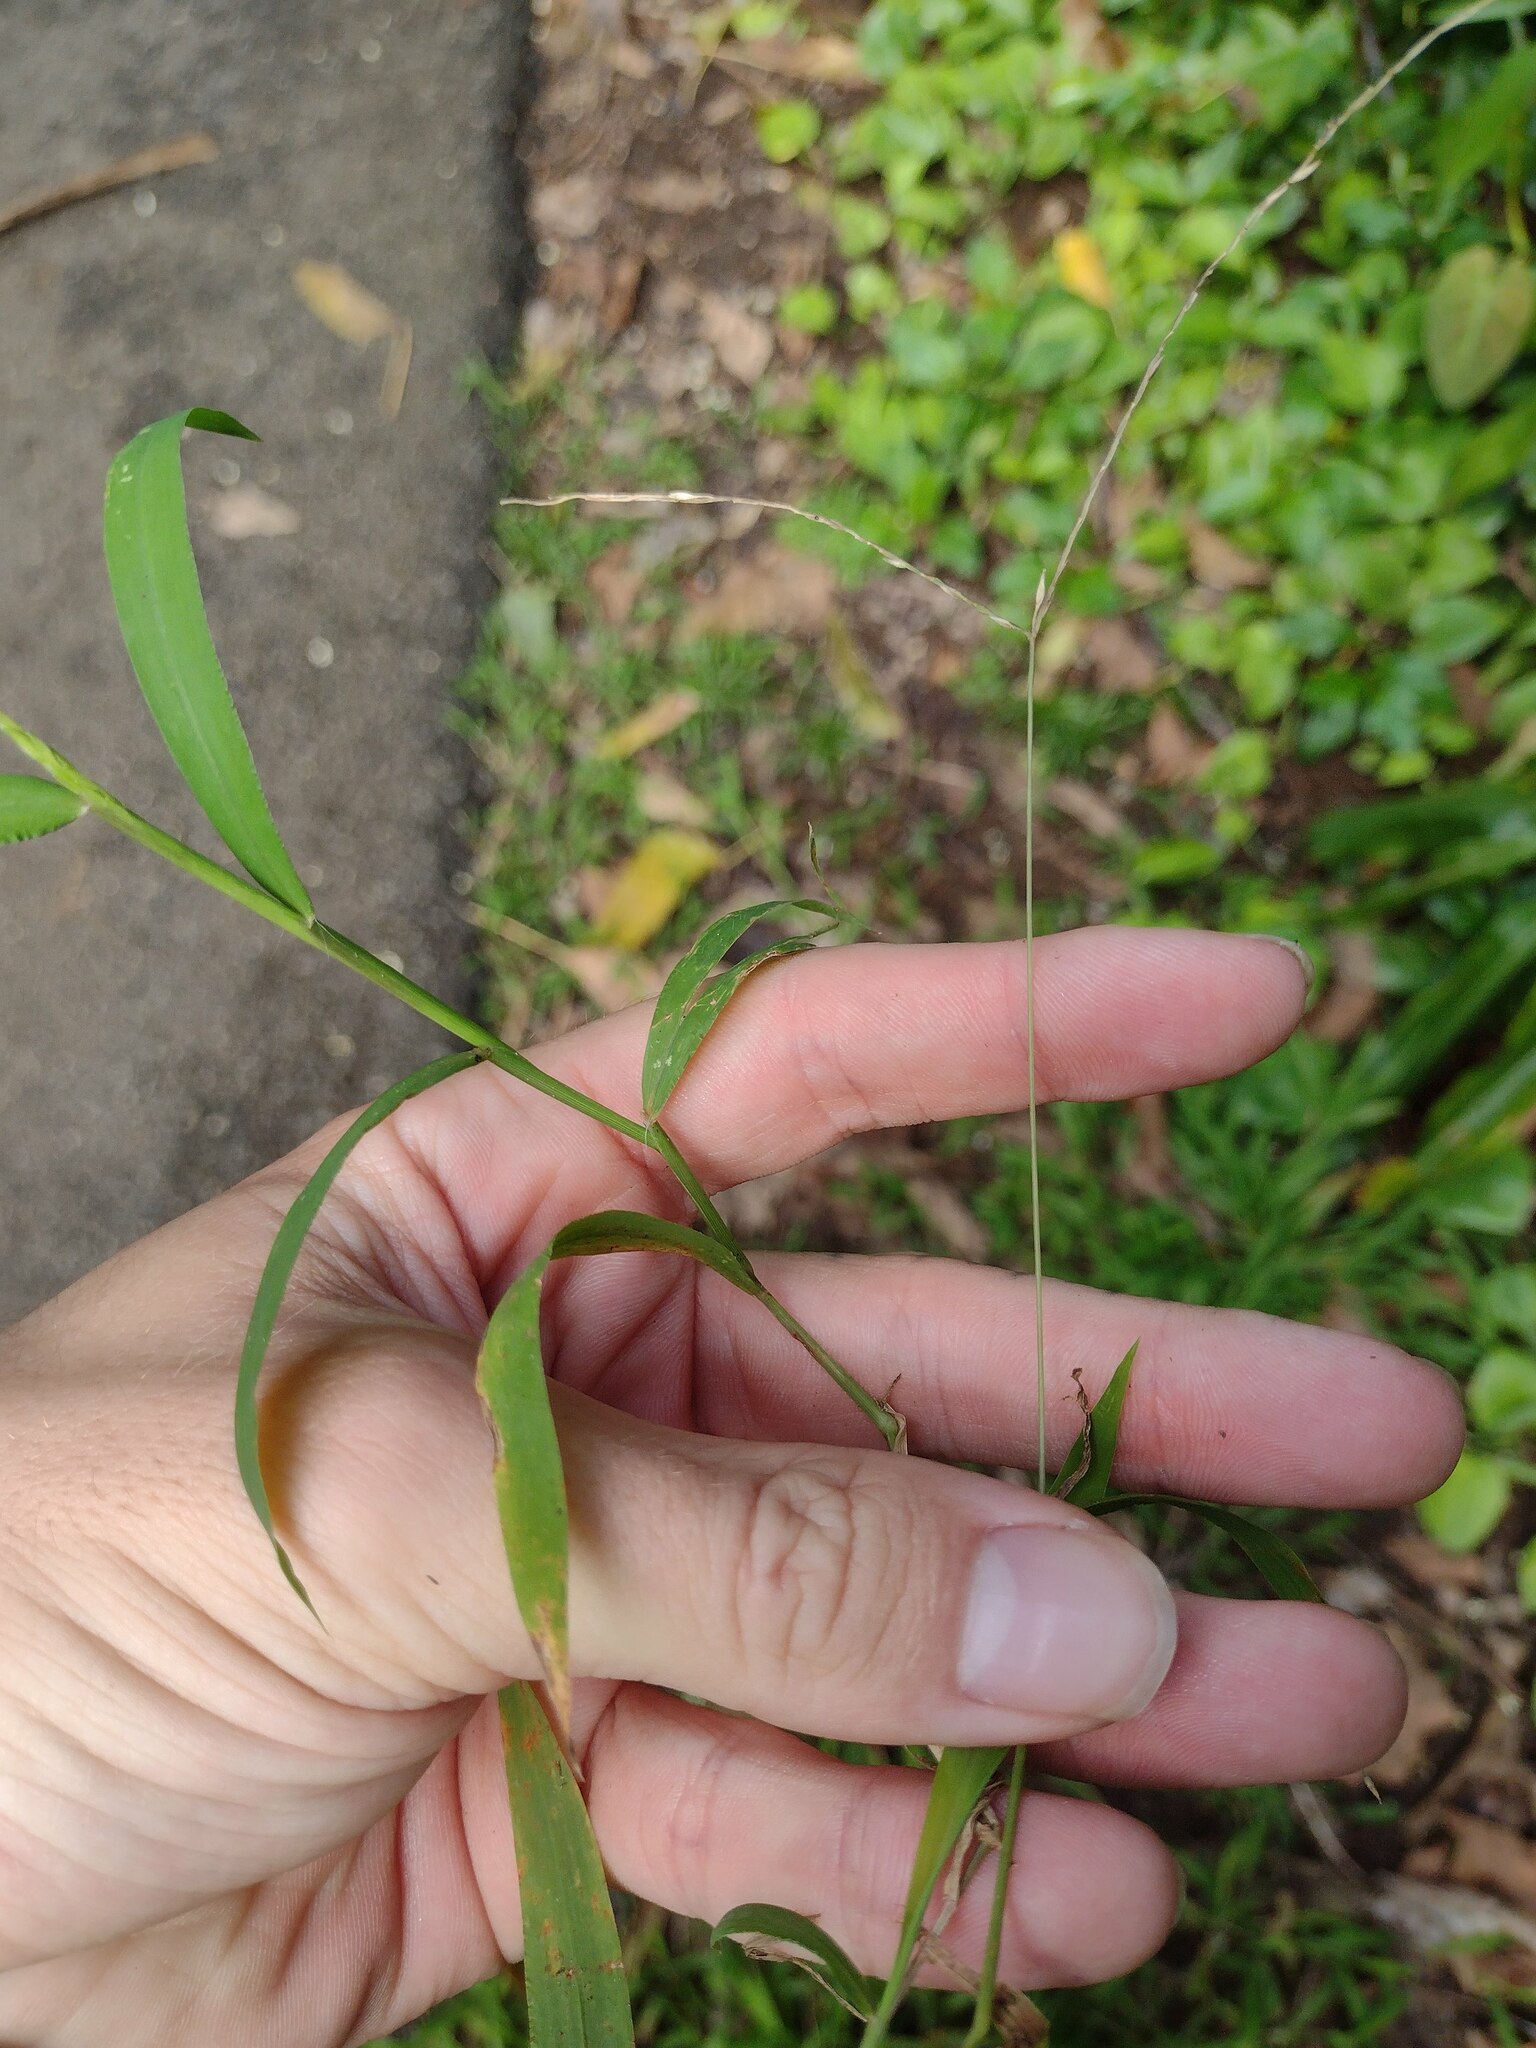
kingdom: Plantae
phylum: Tracheophyta
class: Liliopsida
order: Poales
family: Poaceae
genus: Digitaria
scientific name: Digitaria radicosa
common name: Trailing crabgrass
